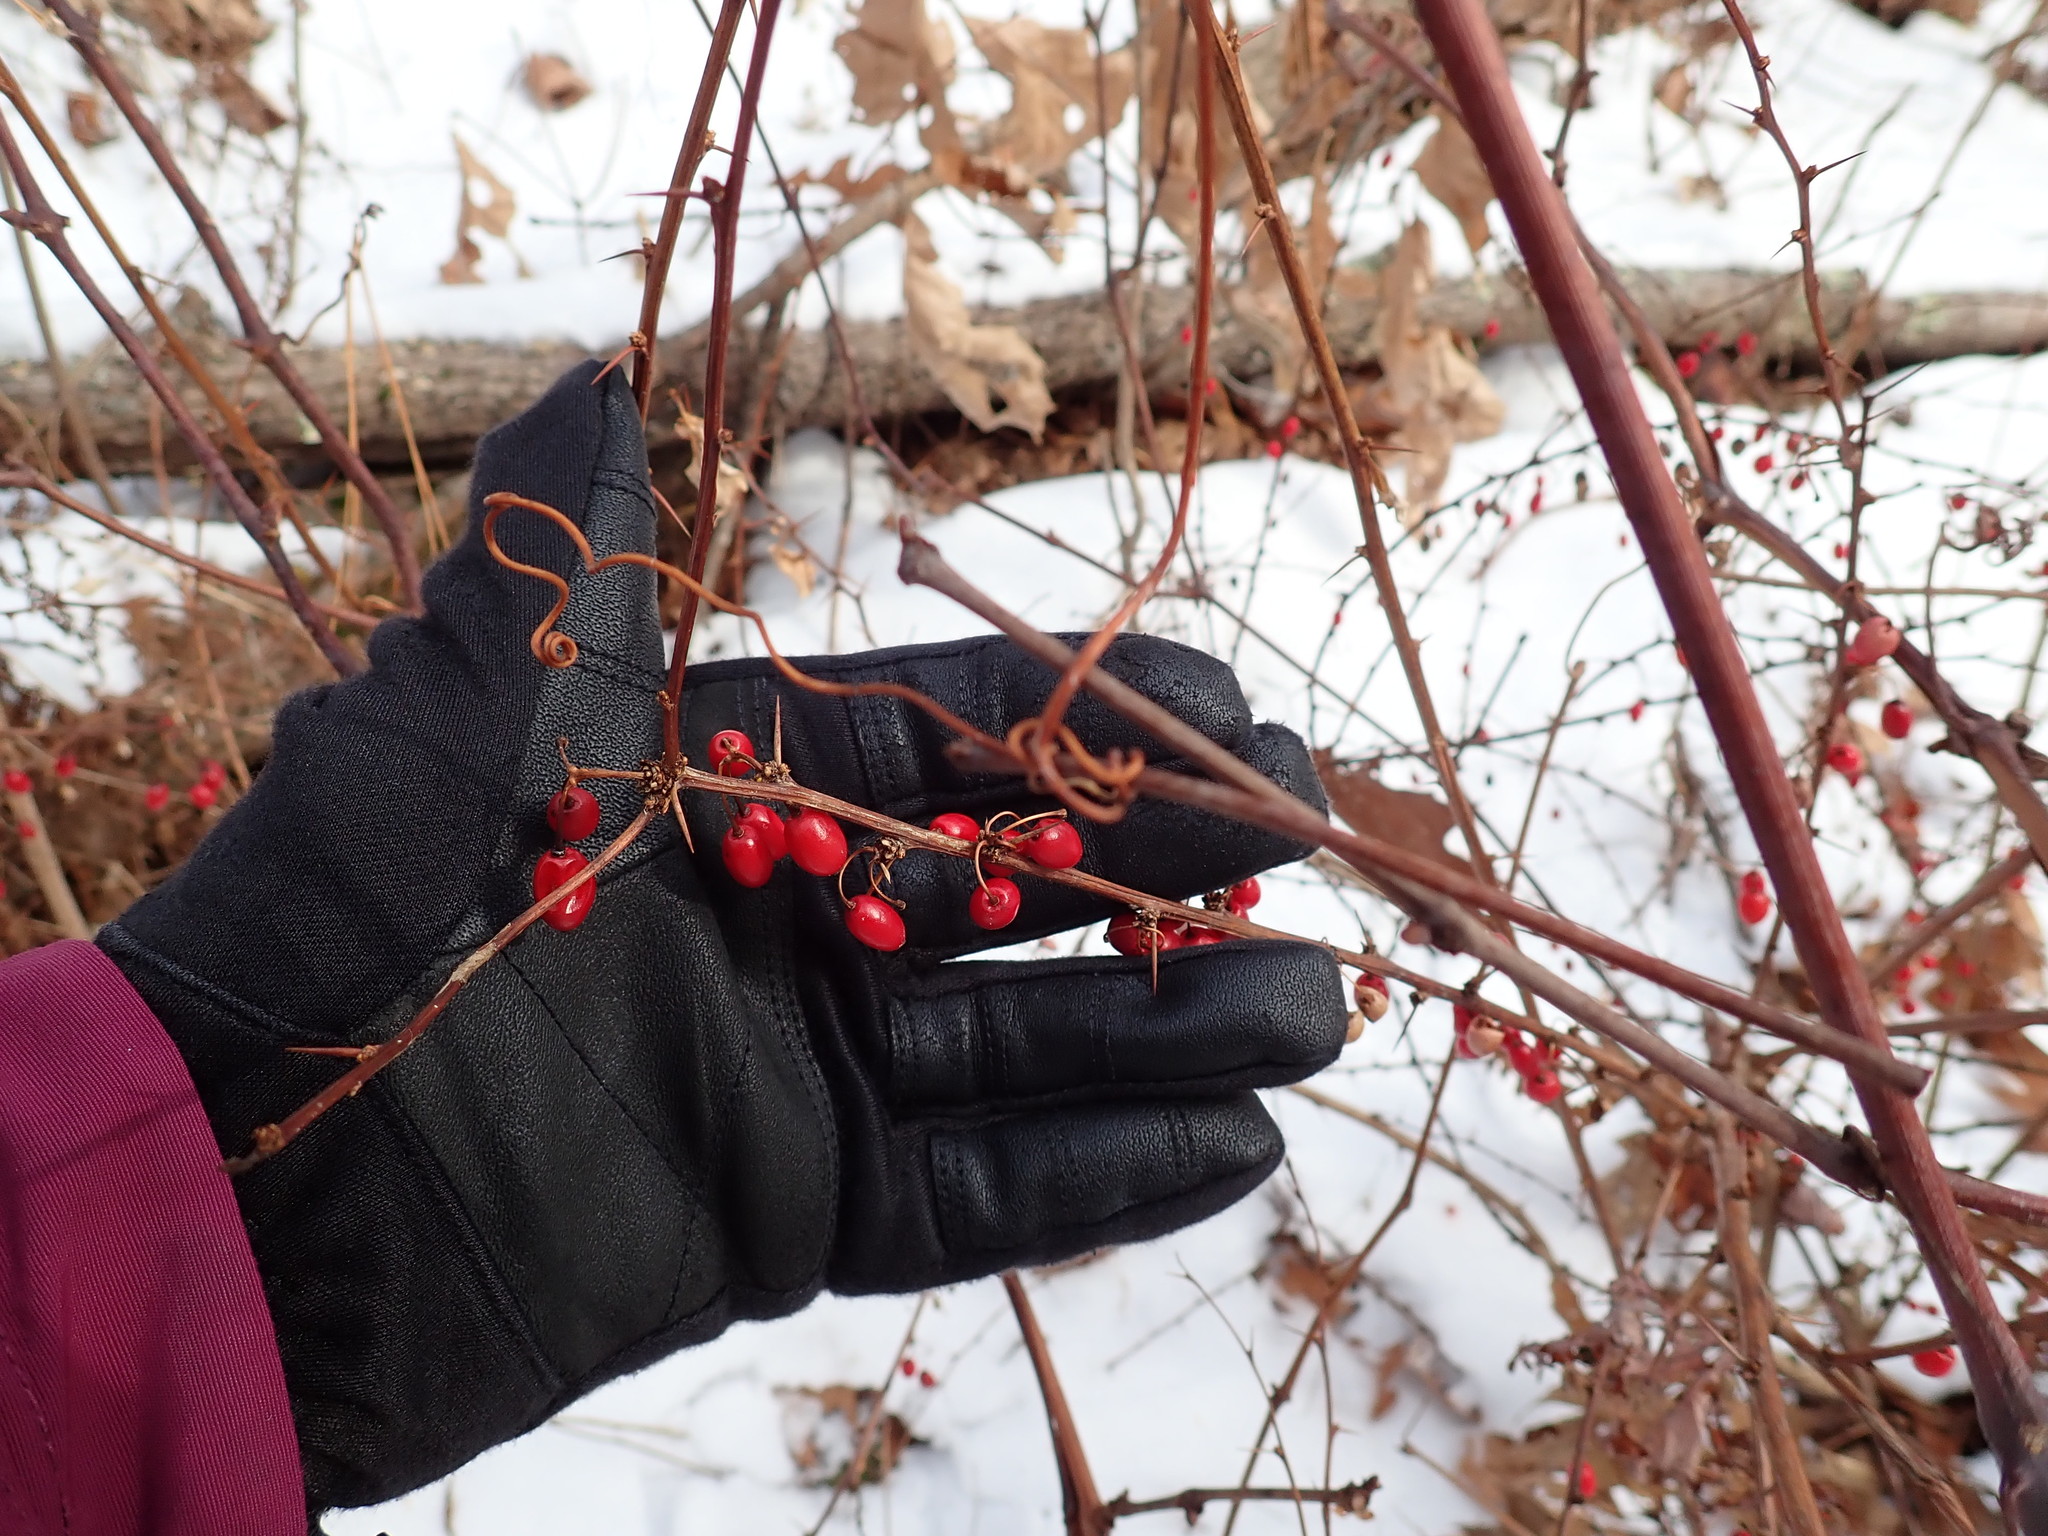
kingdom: Plantae
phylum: Tracheophyta
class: Magnoliopsida
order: Ranunculales
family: Berberidaceae
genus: Berberis
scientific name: Berberis thunbergii
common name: Japanese barberry
